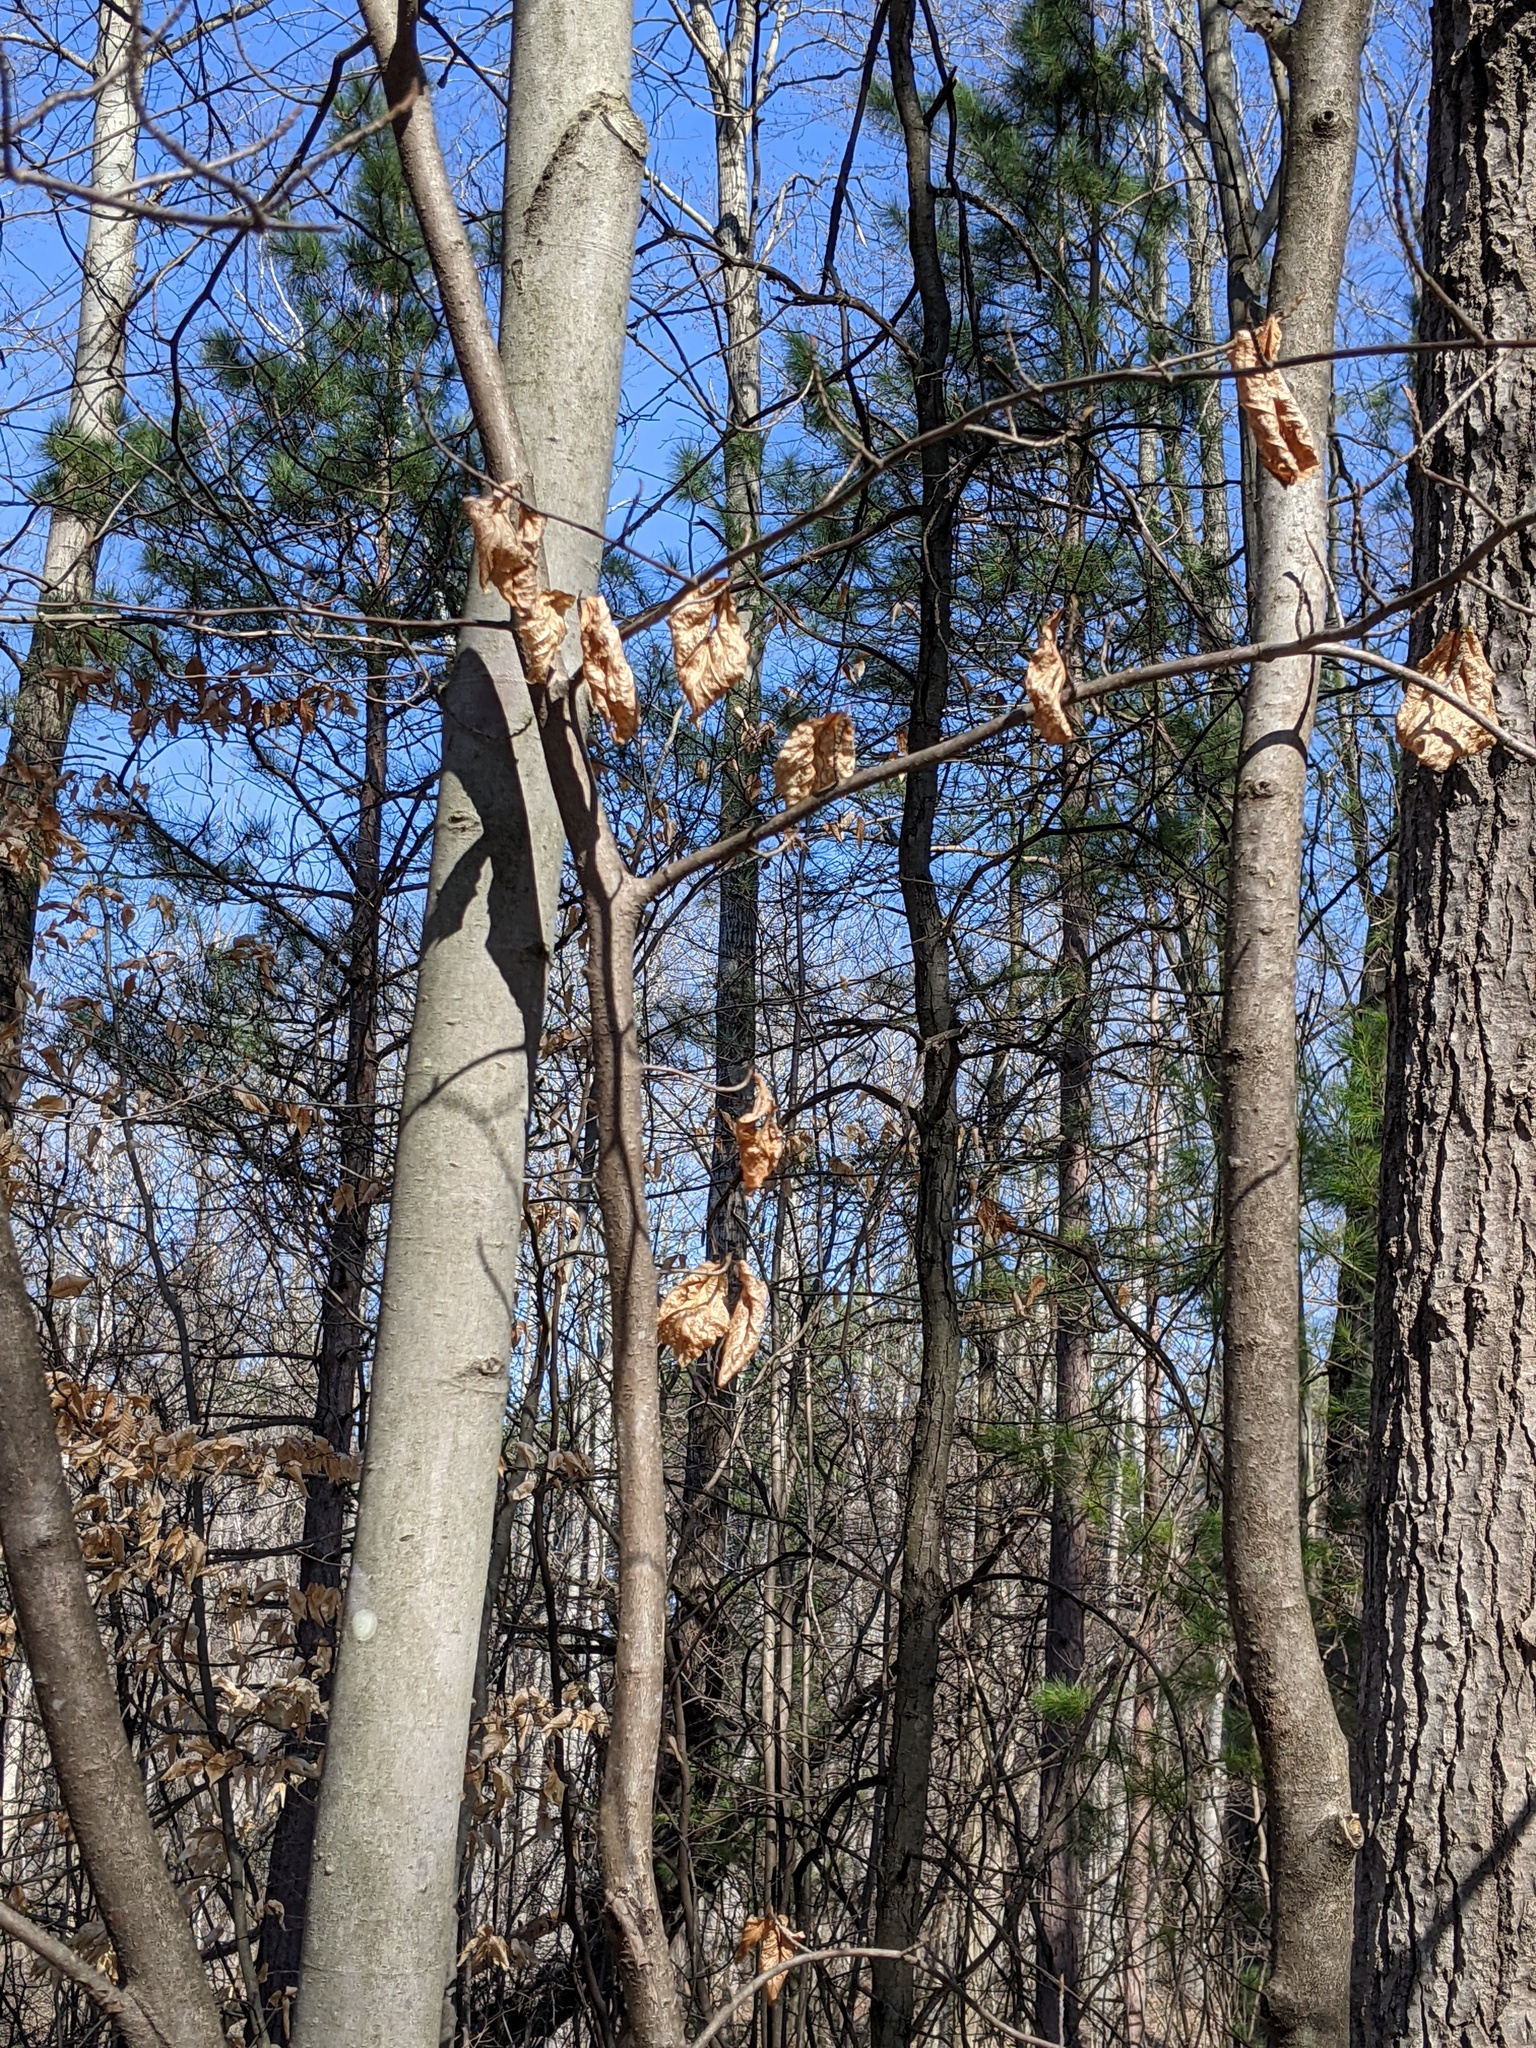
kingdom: Plantae
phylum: Tracheophyta
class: Magnoliopsida
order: Saxifragales
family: Hamamelidaceae
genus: Hamamelis
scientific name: Hamamelis virginiana
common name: Witch-hazel
